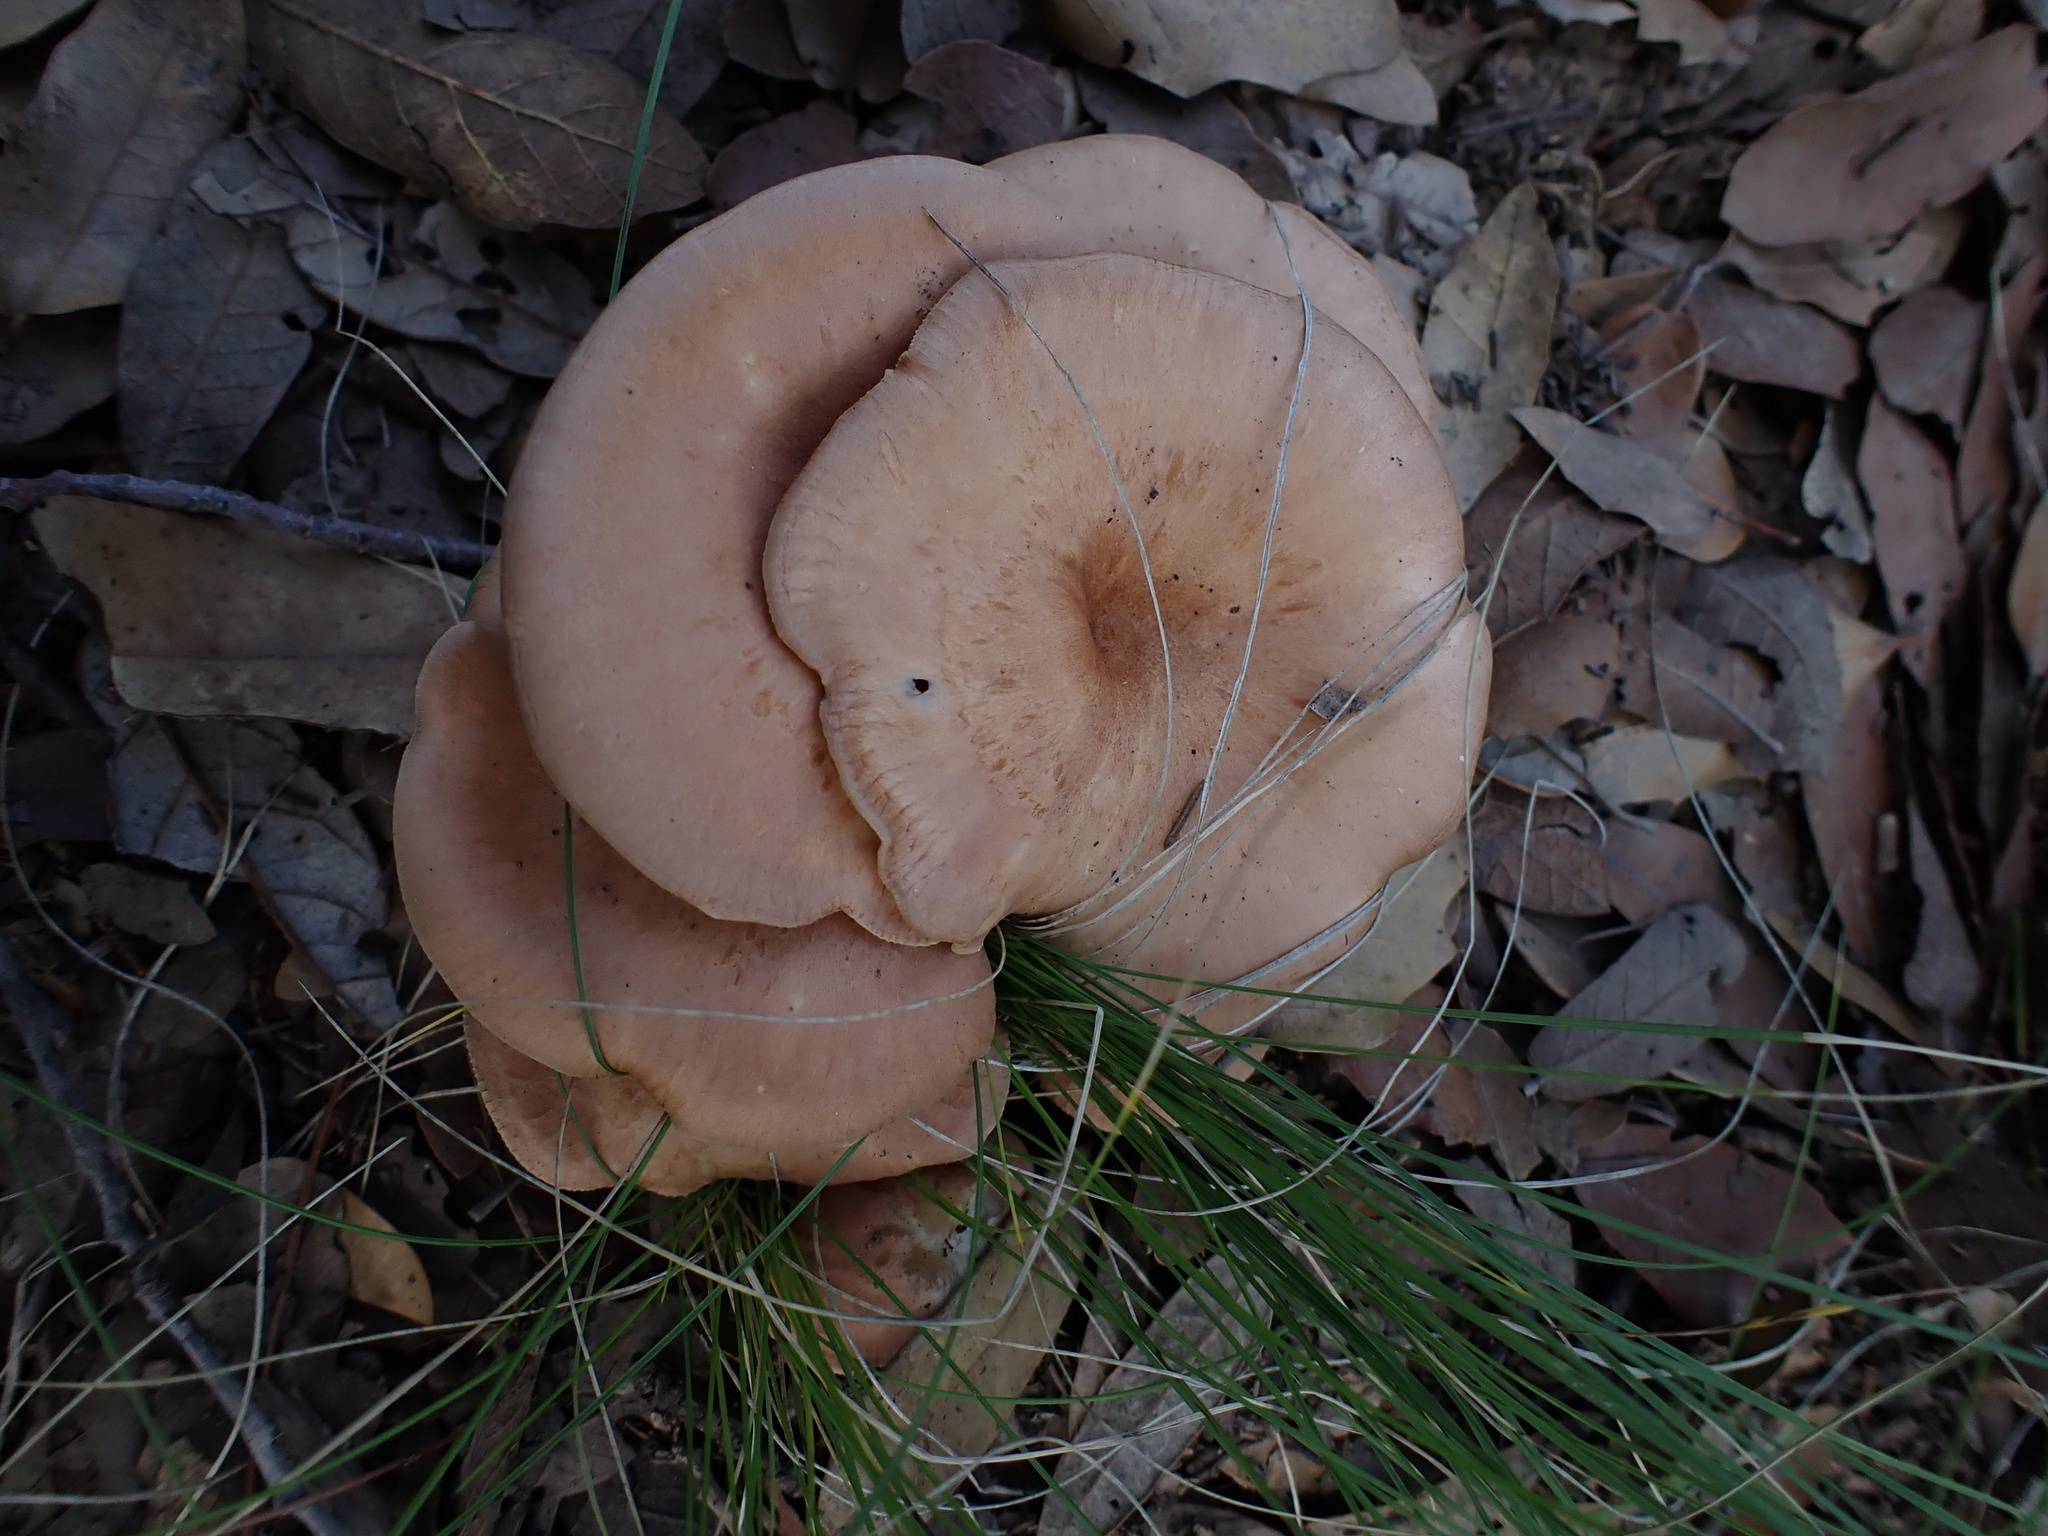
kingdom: Fungi
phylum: Basidiomycota
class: Agaricomycetes
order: Agaricales
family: Tricholomataceae
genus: Infundibulicybe
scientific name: Infundibulicybe gibba
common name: Common funnel
